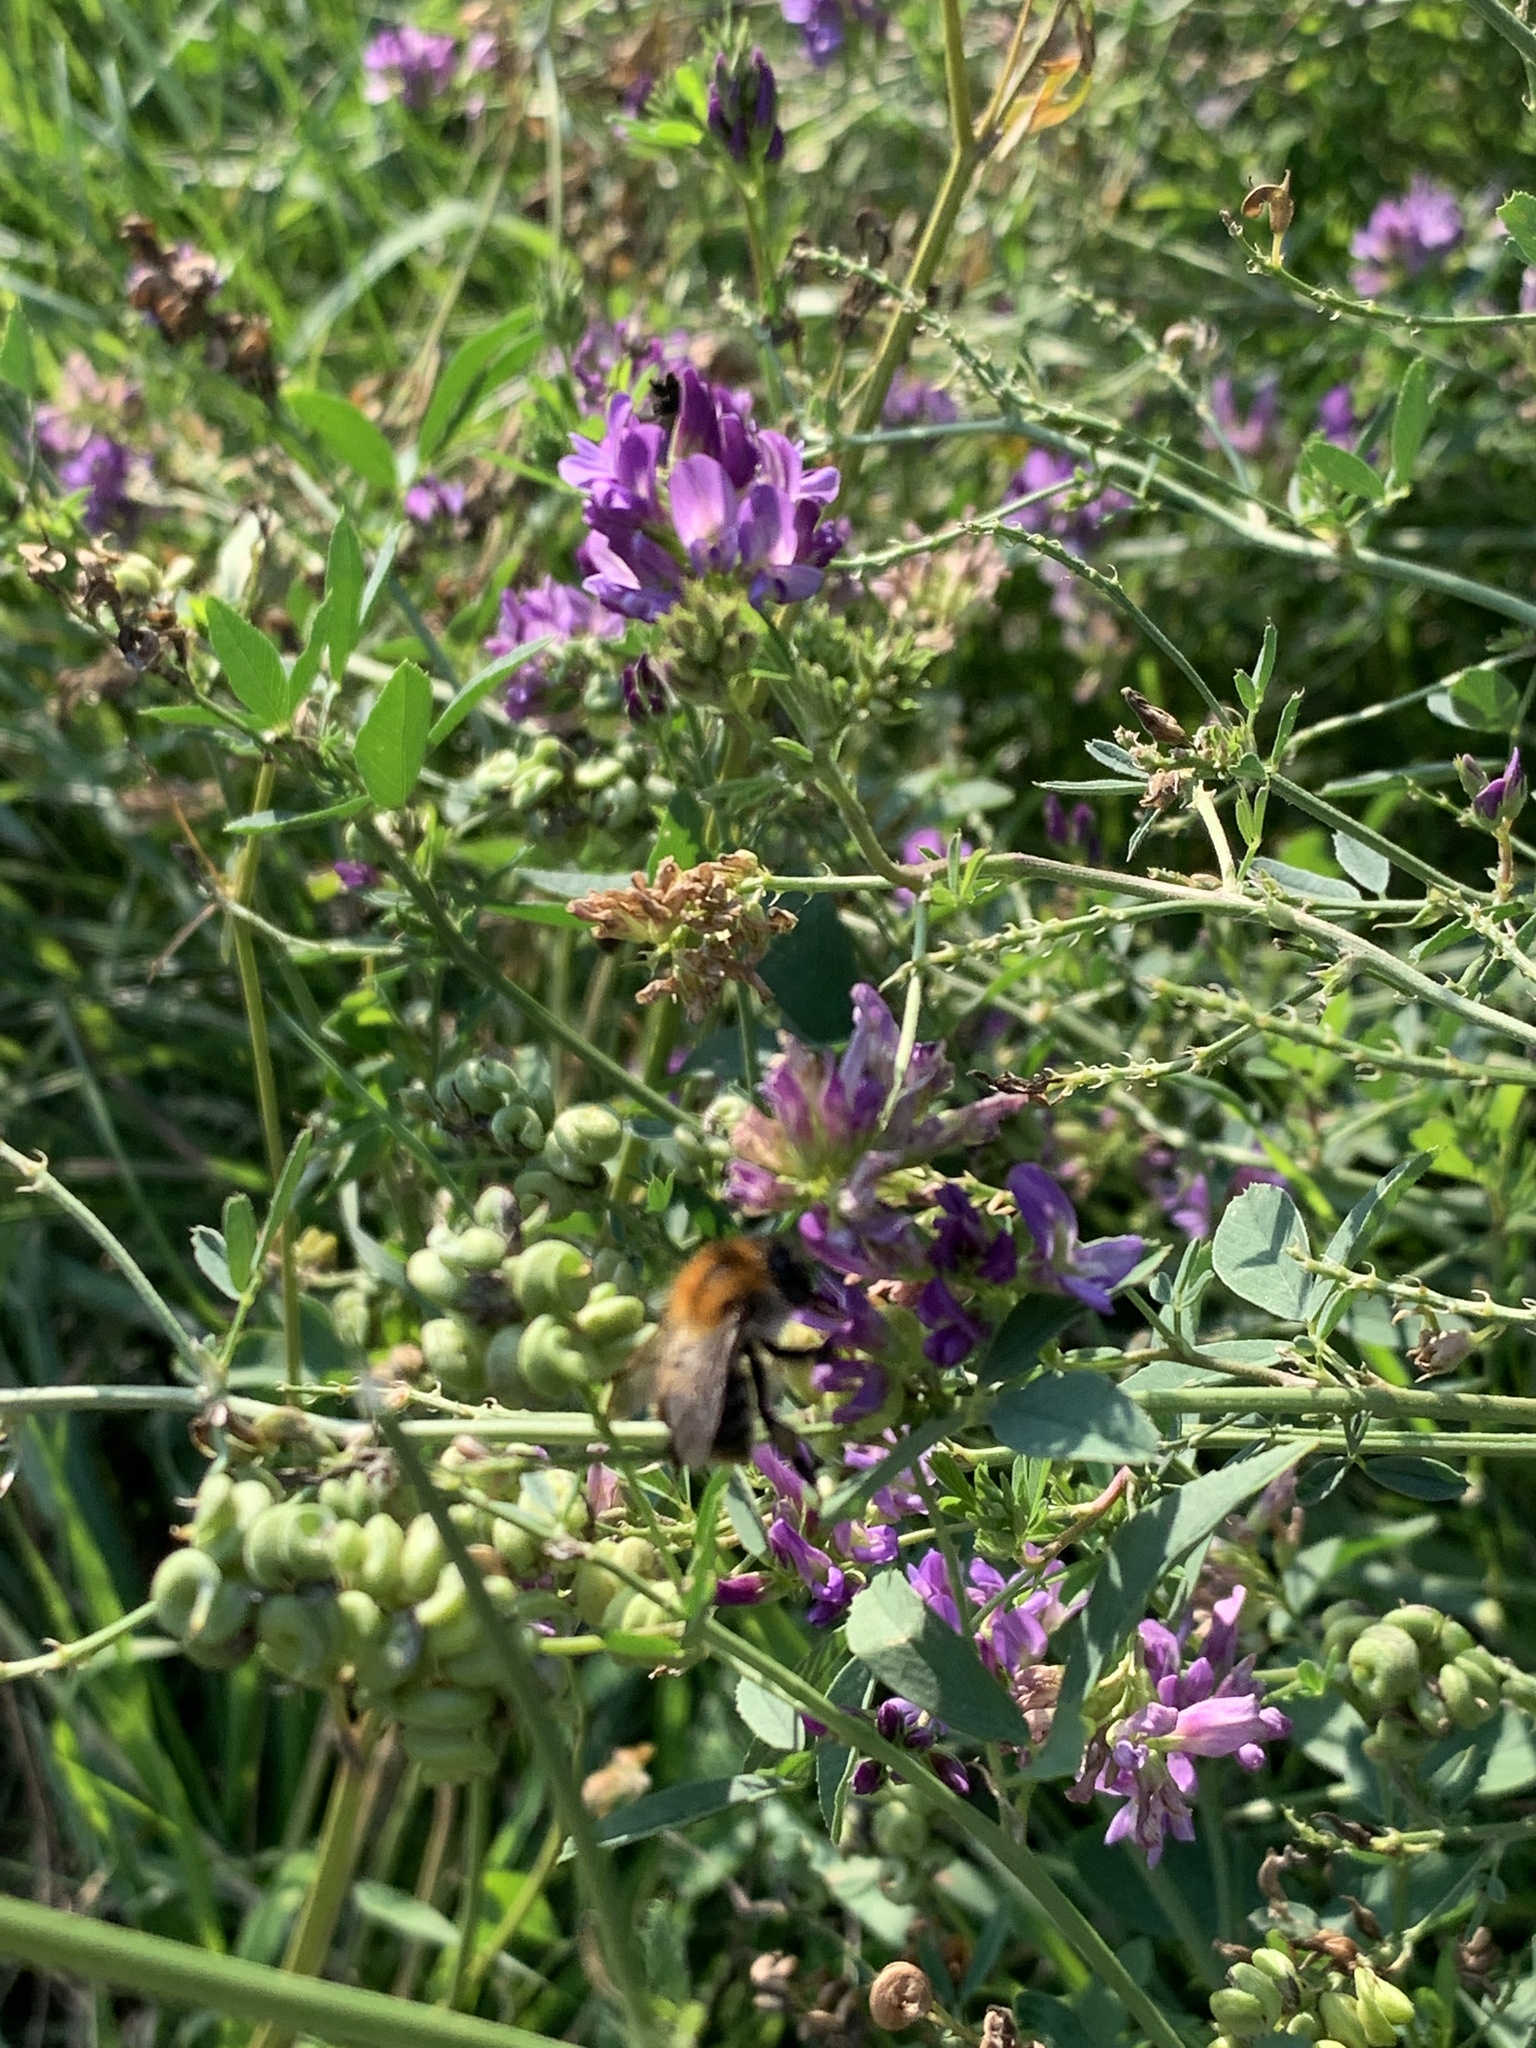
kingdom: Plantae
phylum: Tracheophyta
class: Magnoliopsida
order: Fabales
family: Fabaceae
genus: Medicago
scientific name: Medicago sativa
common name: Alfalfa
